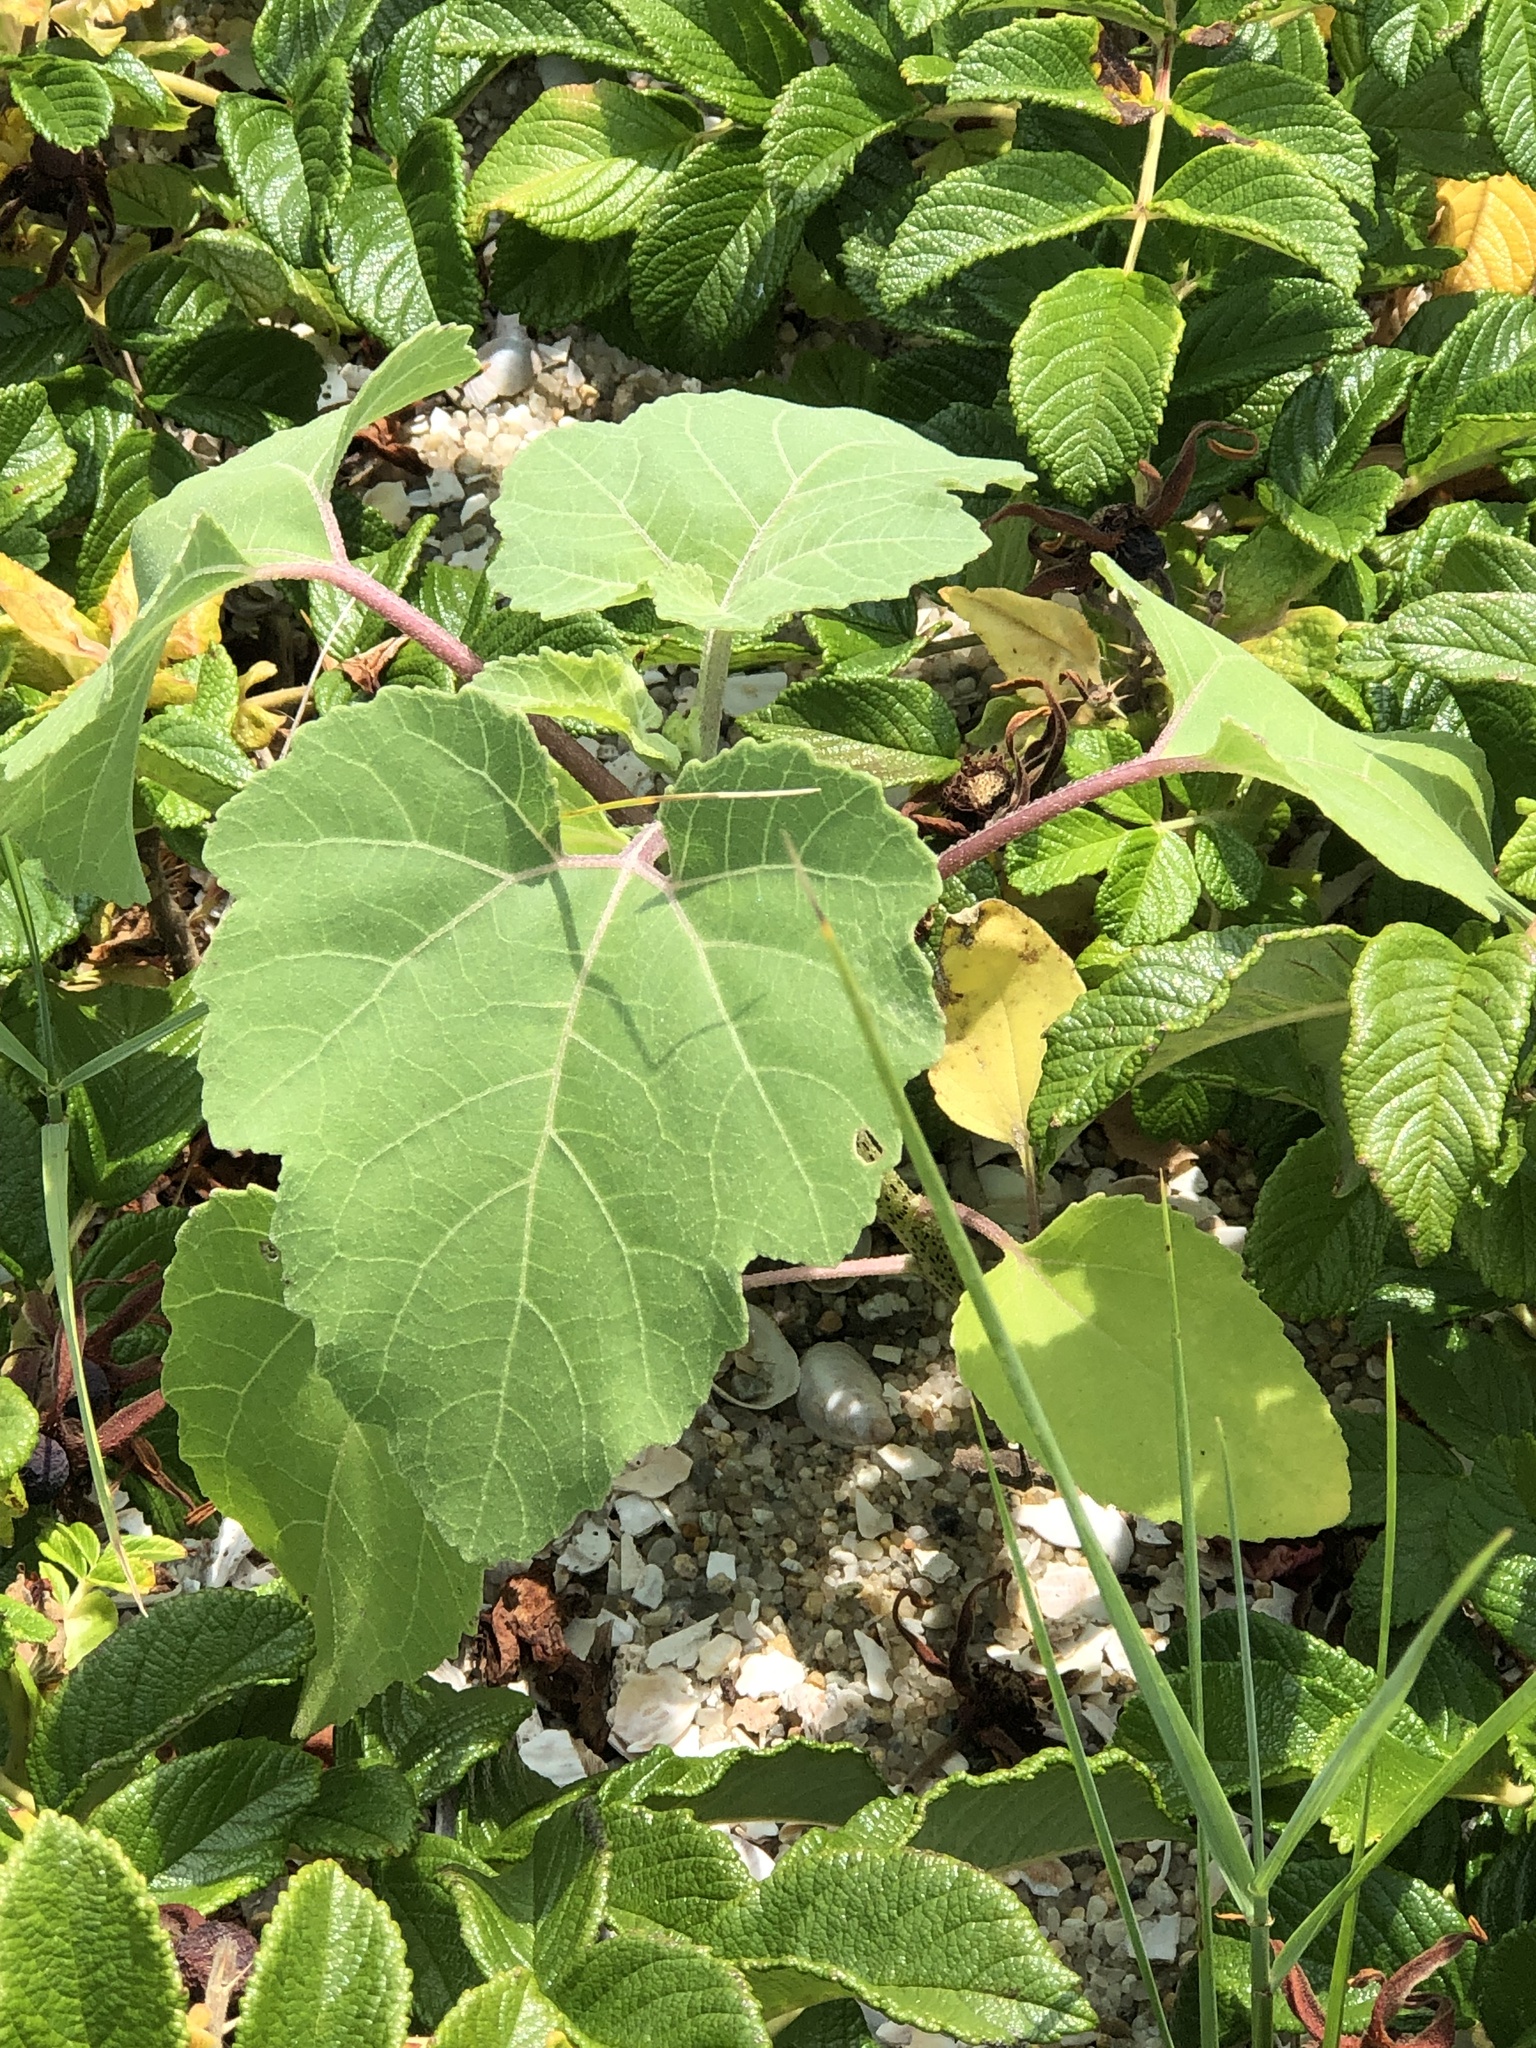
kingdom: Plantae
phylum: Tracheophyta
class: Magnoliopsida
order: Asterales
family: Asteraceae
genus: Xanthium
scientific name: Xanthium strumarium
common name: Rough cocklebur
